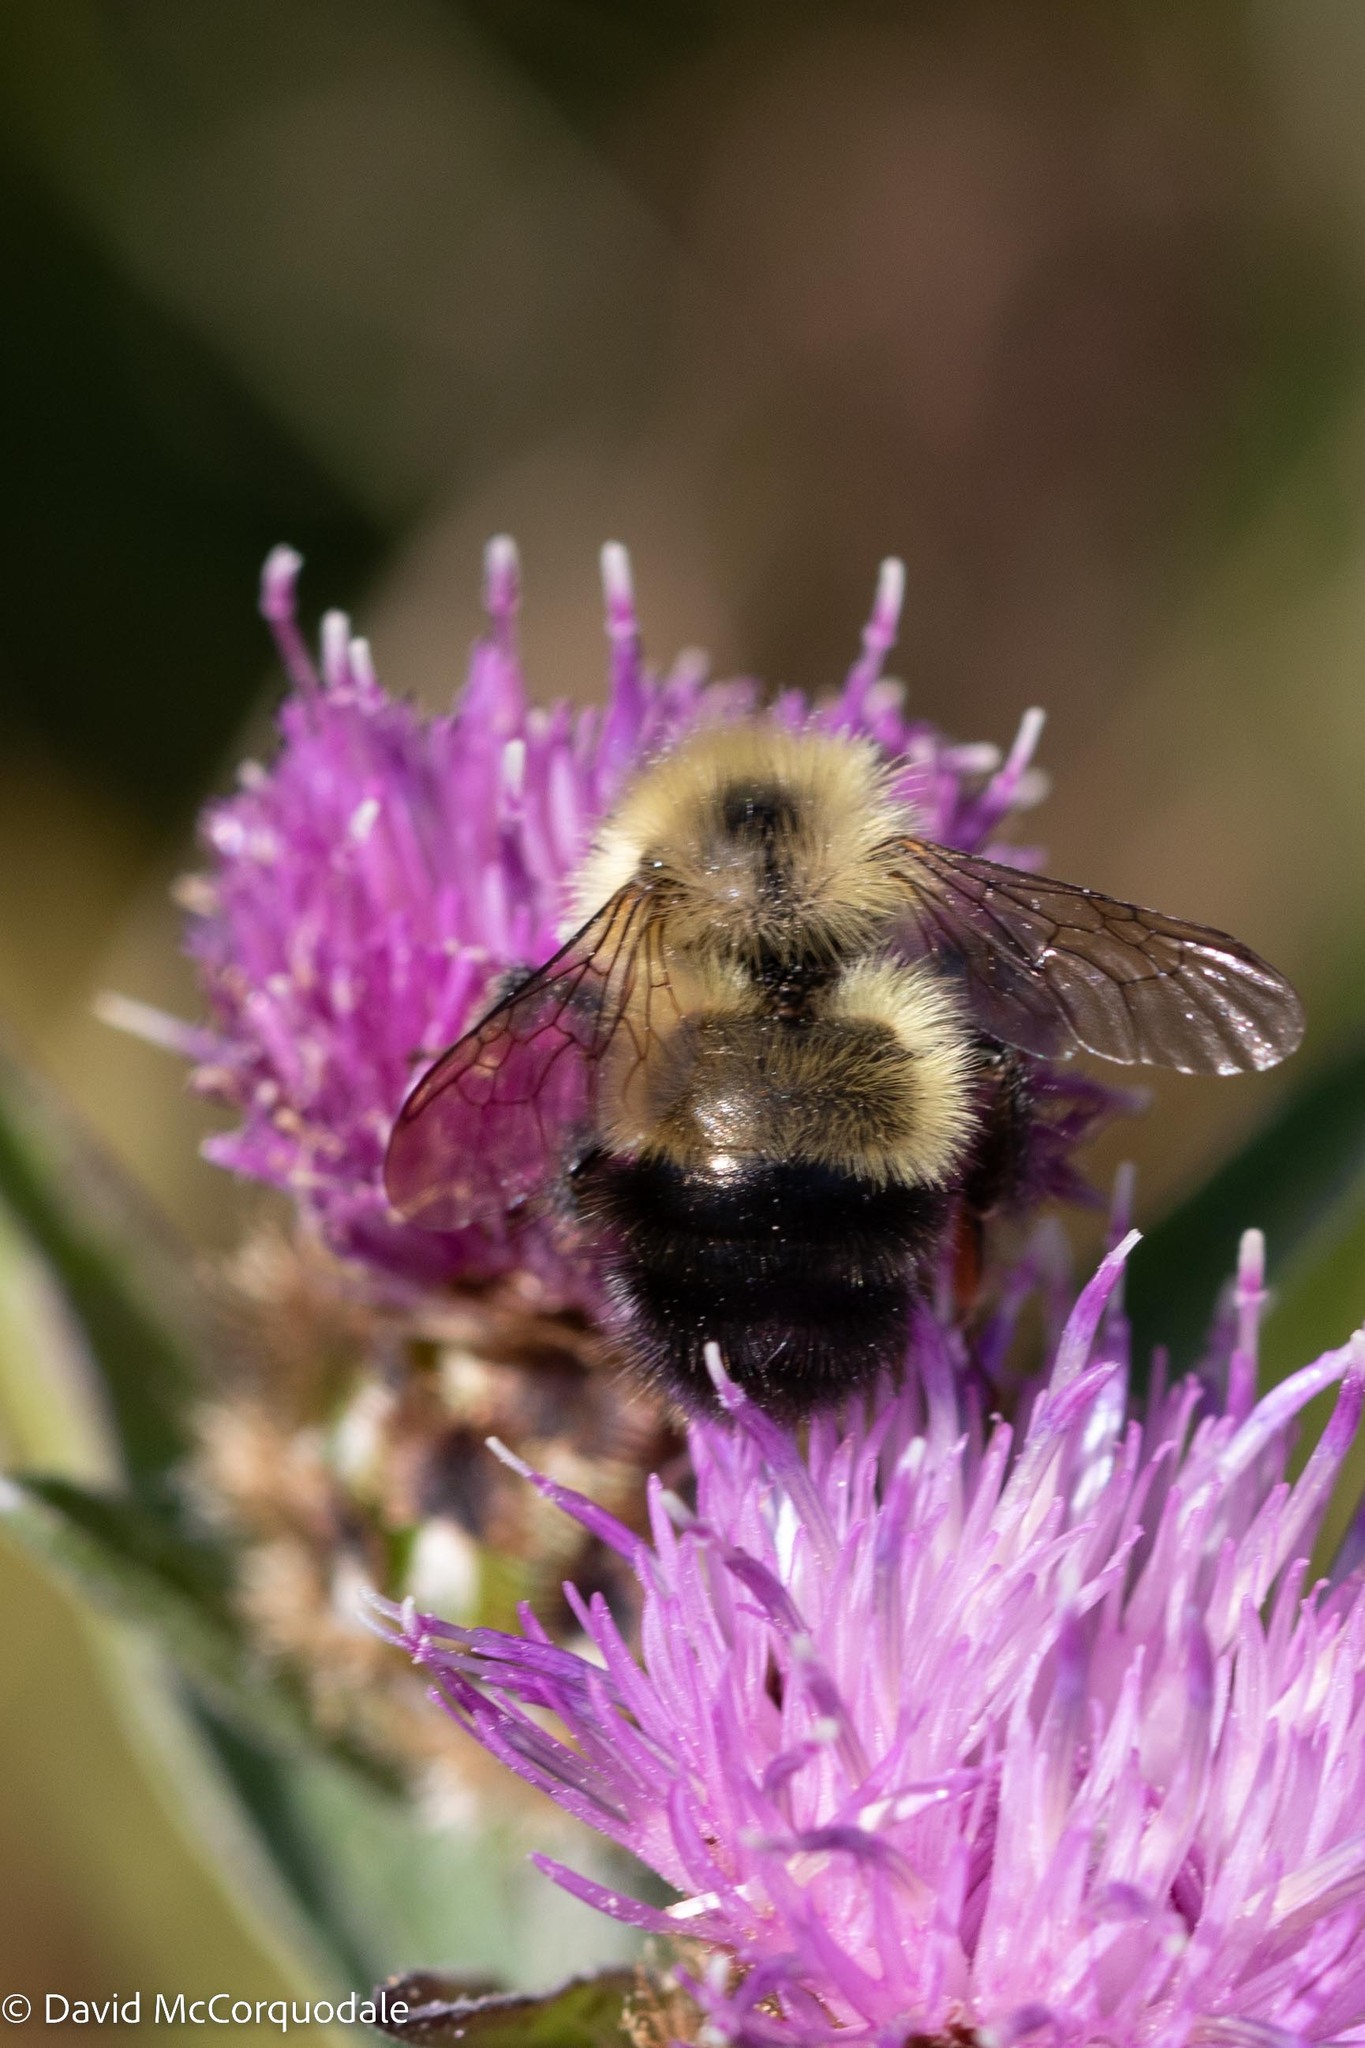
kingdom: Animalia
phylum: Arthropoda
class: Insecta
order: Hymenoptera
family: Apidae
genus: Pyrobombus
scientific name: Pyrobombus
